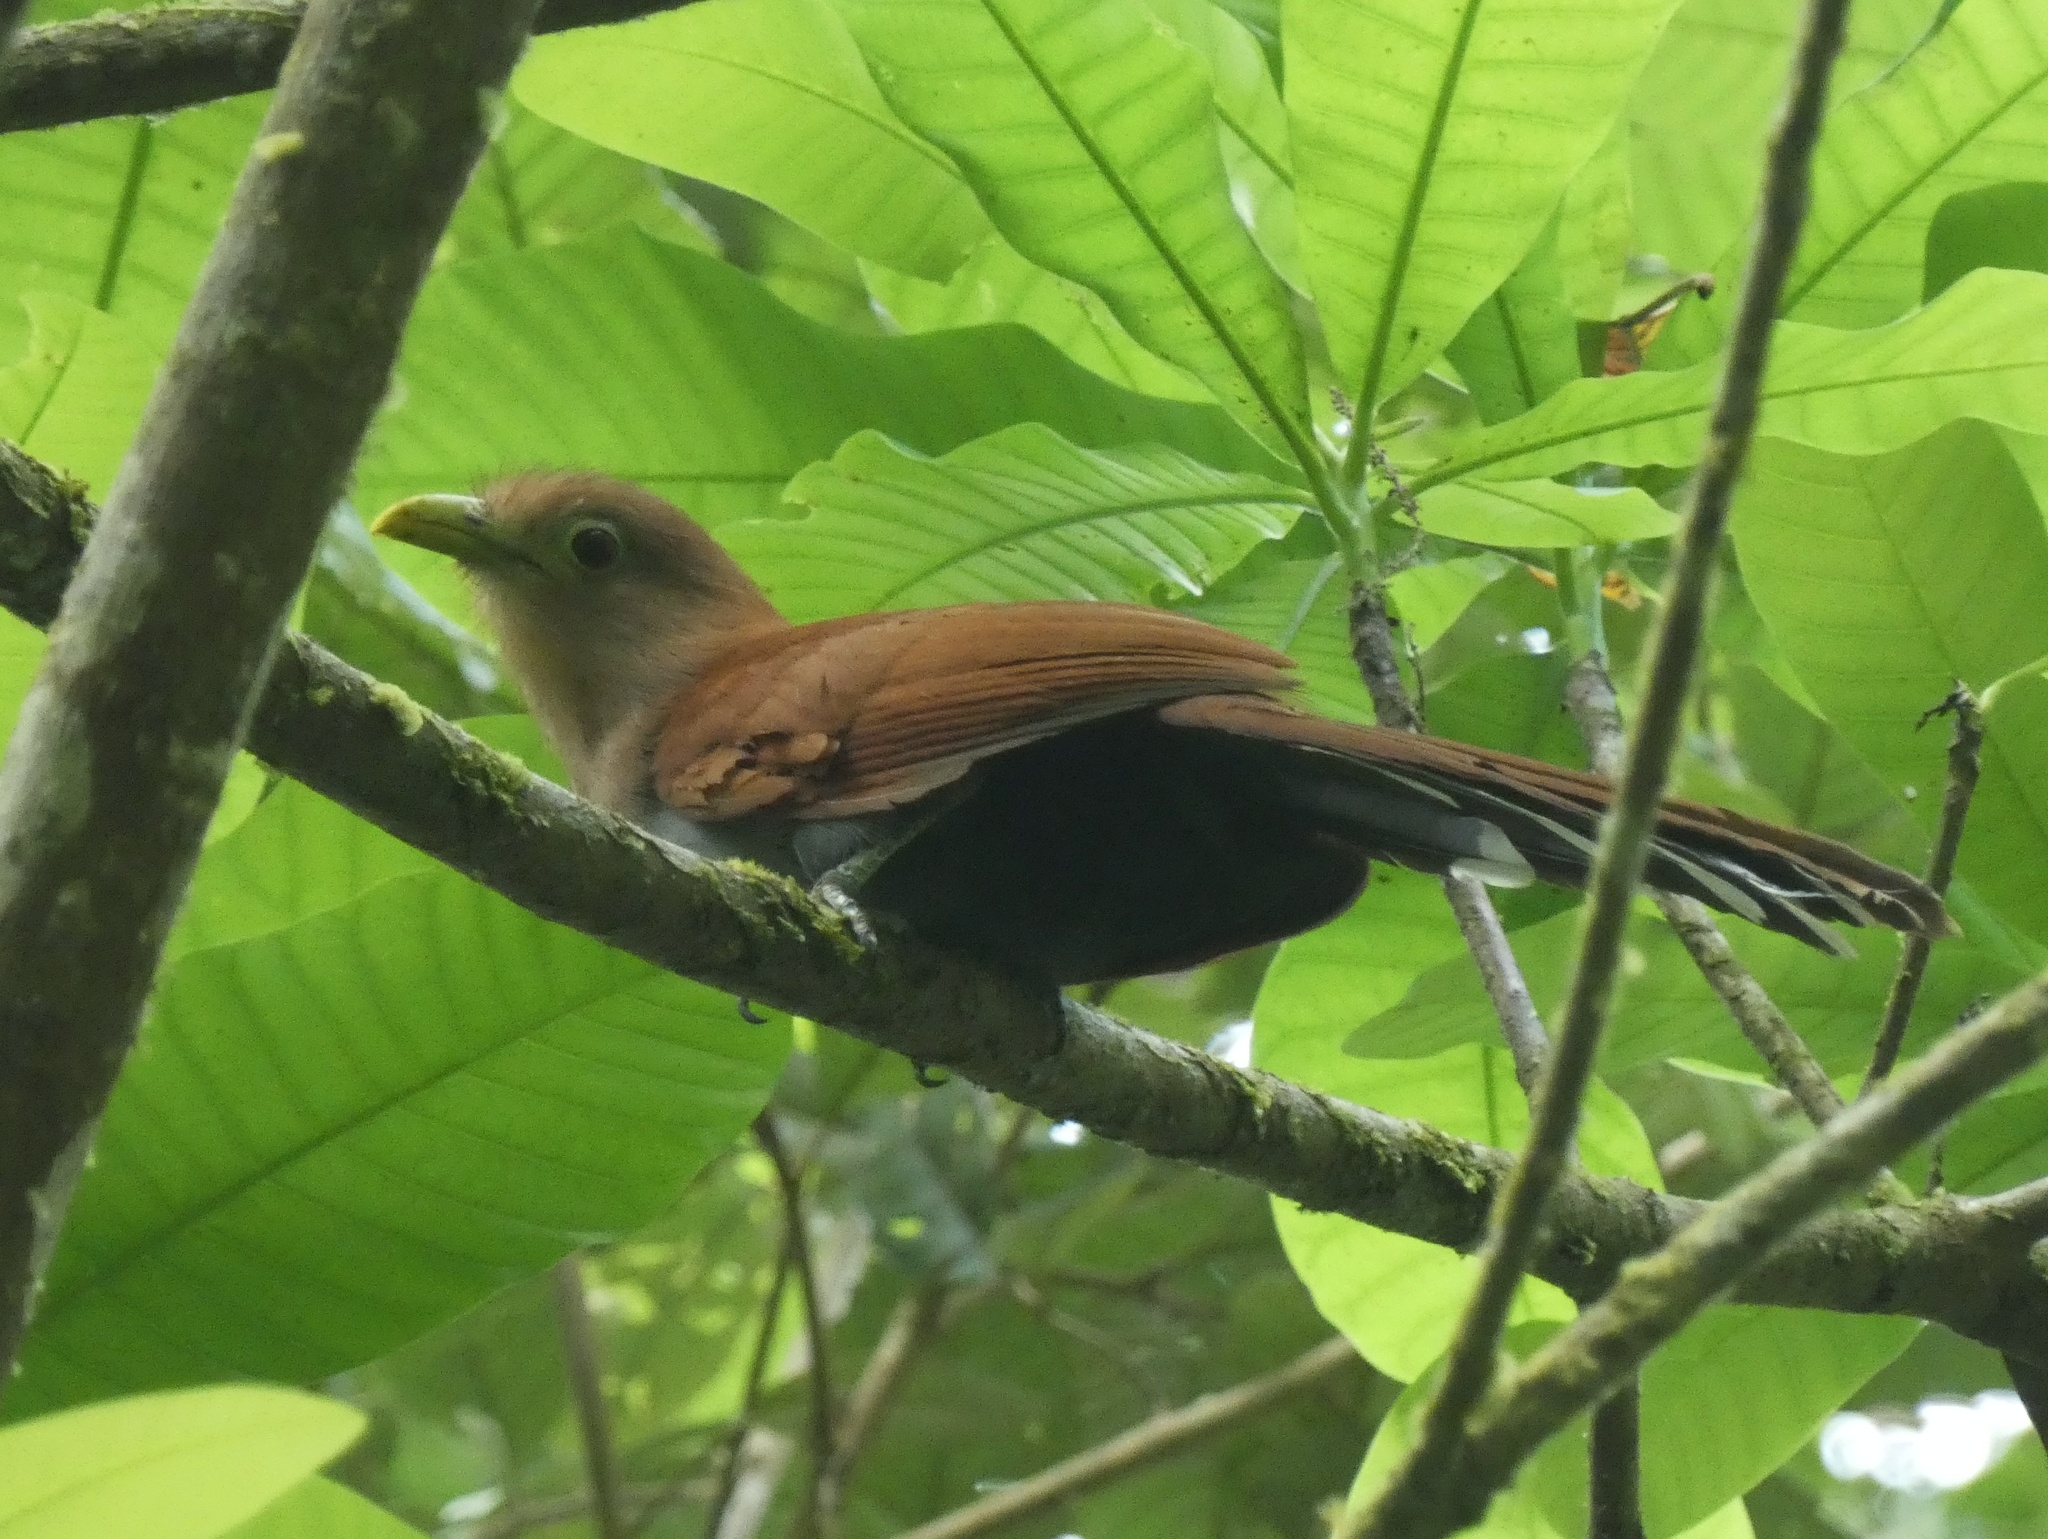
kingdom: Animalia
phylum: Chordata
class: Aves
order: Cuculiformes
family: Cuculidae
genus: Piaya
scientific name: Piaya cayana
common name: Squirrel cuckoo
